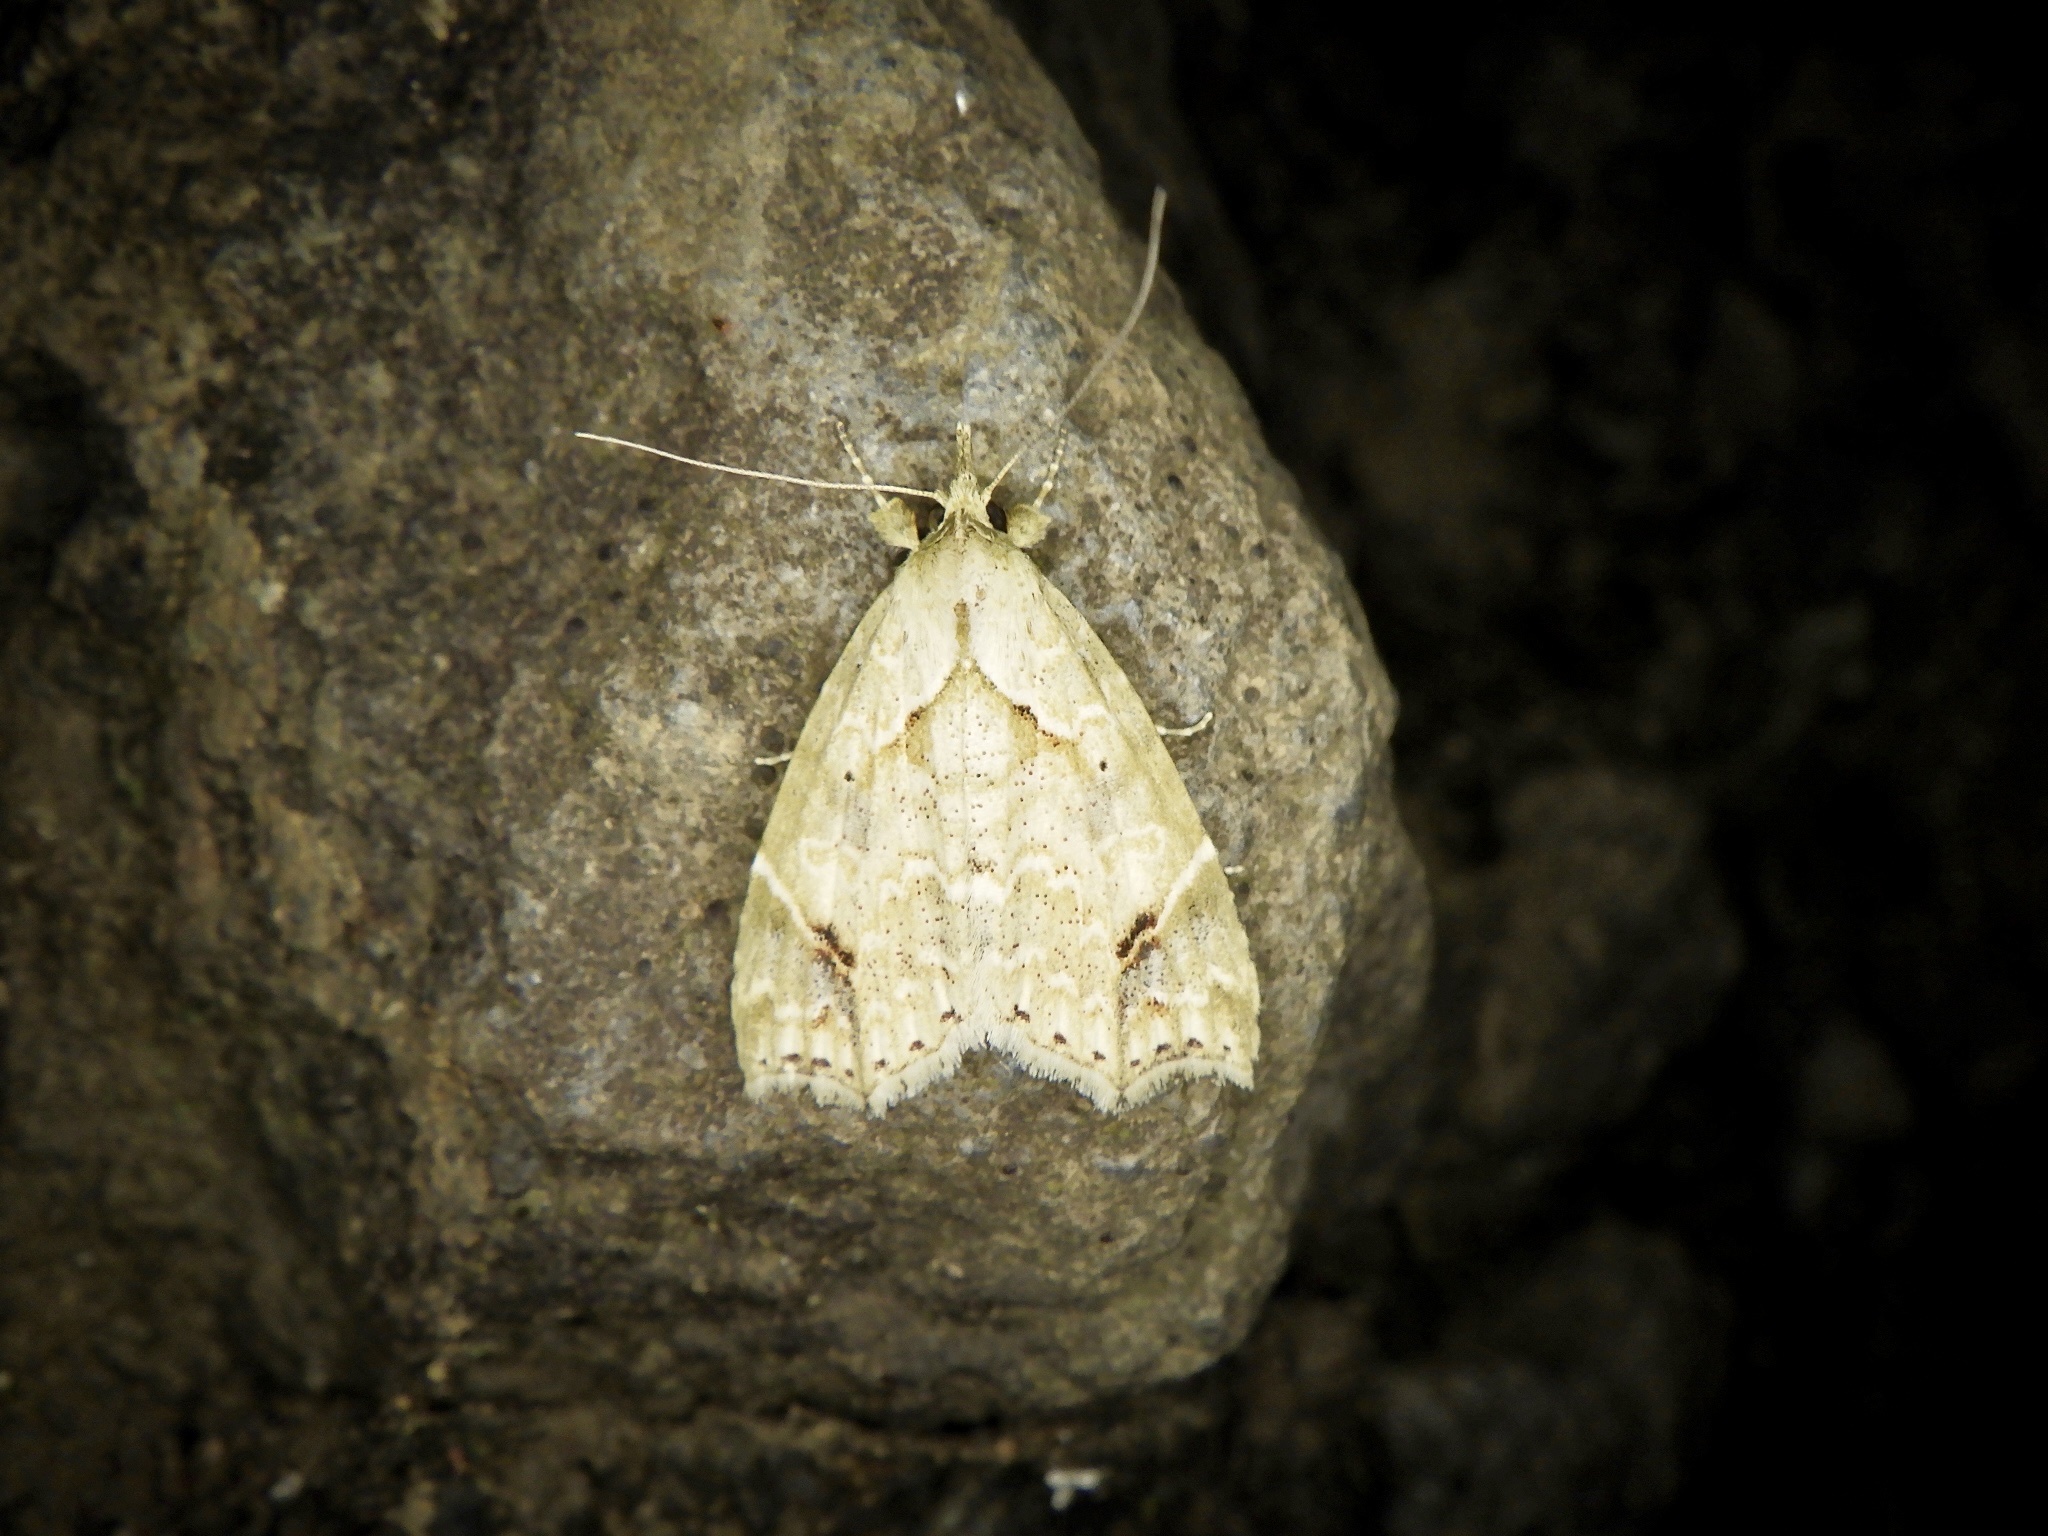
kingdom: Animalia
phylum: Arthropoda
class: Insecta
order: Lepidoptera
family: Erebidae
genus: Olulis
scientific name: Olulis
